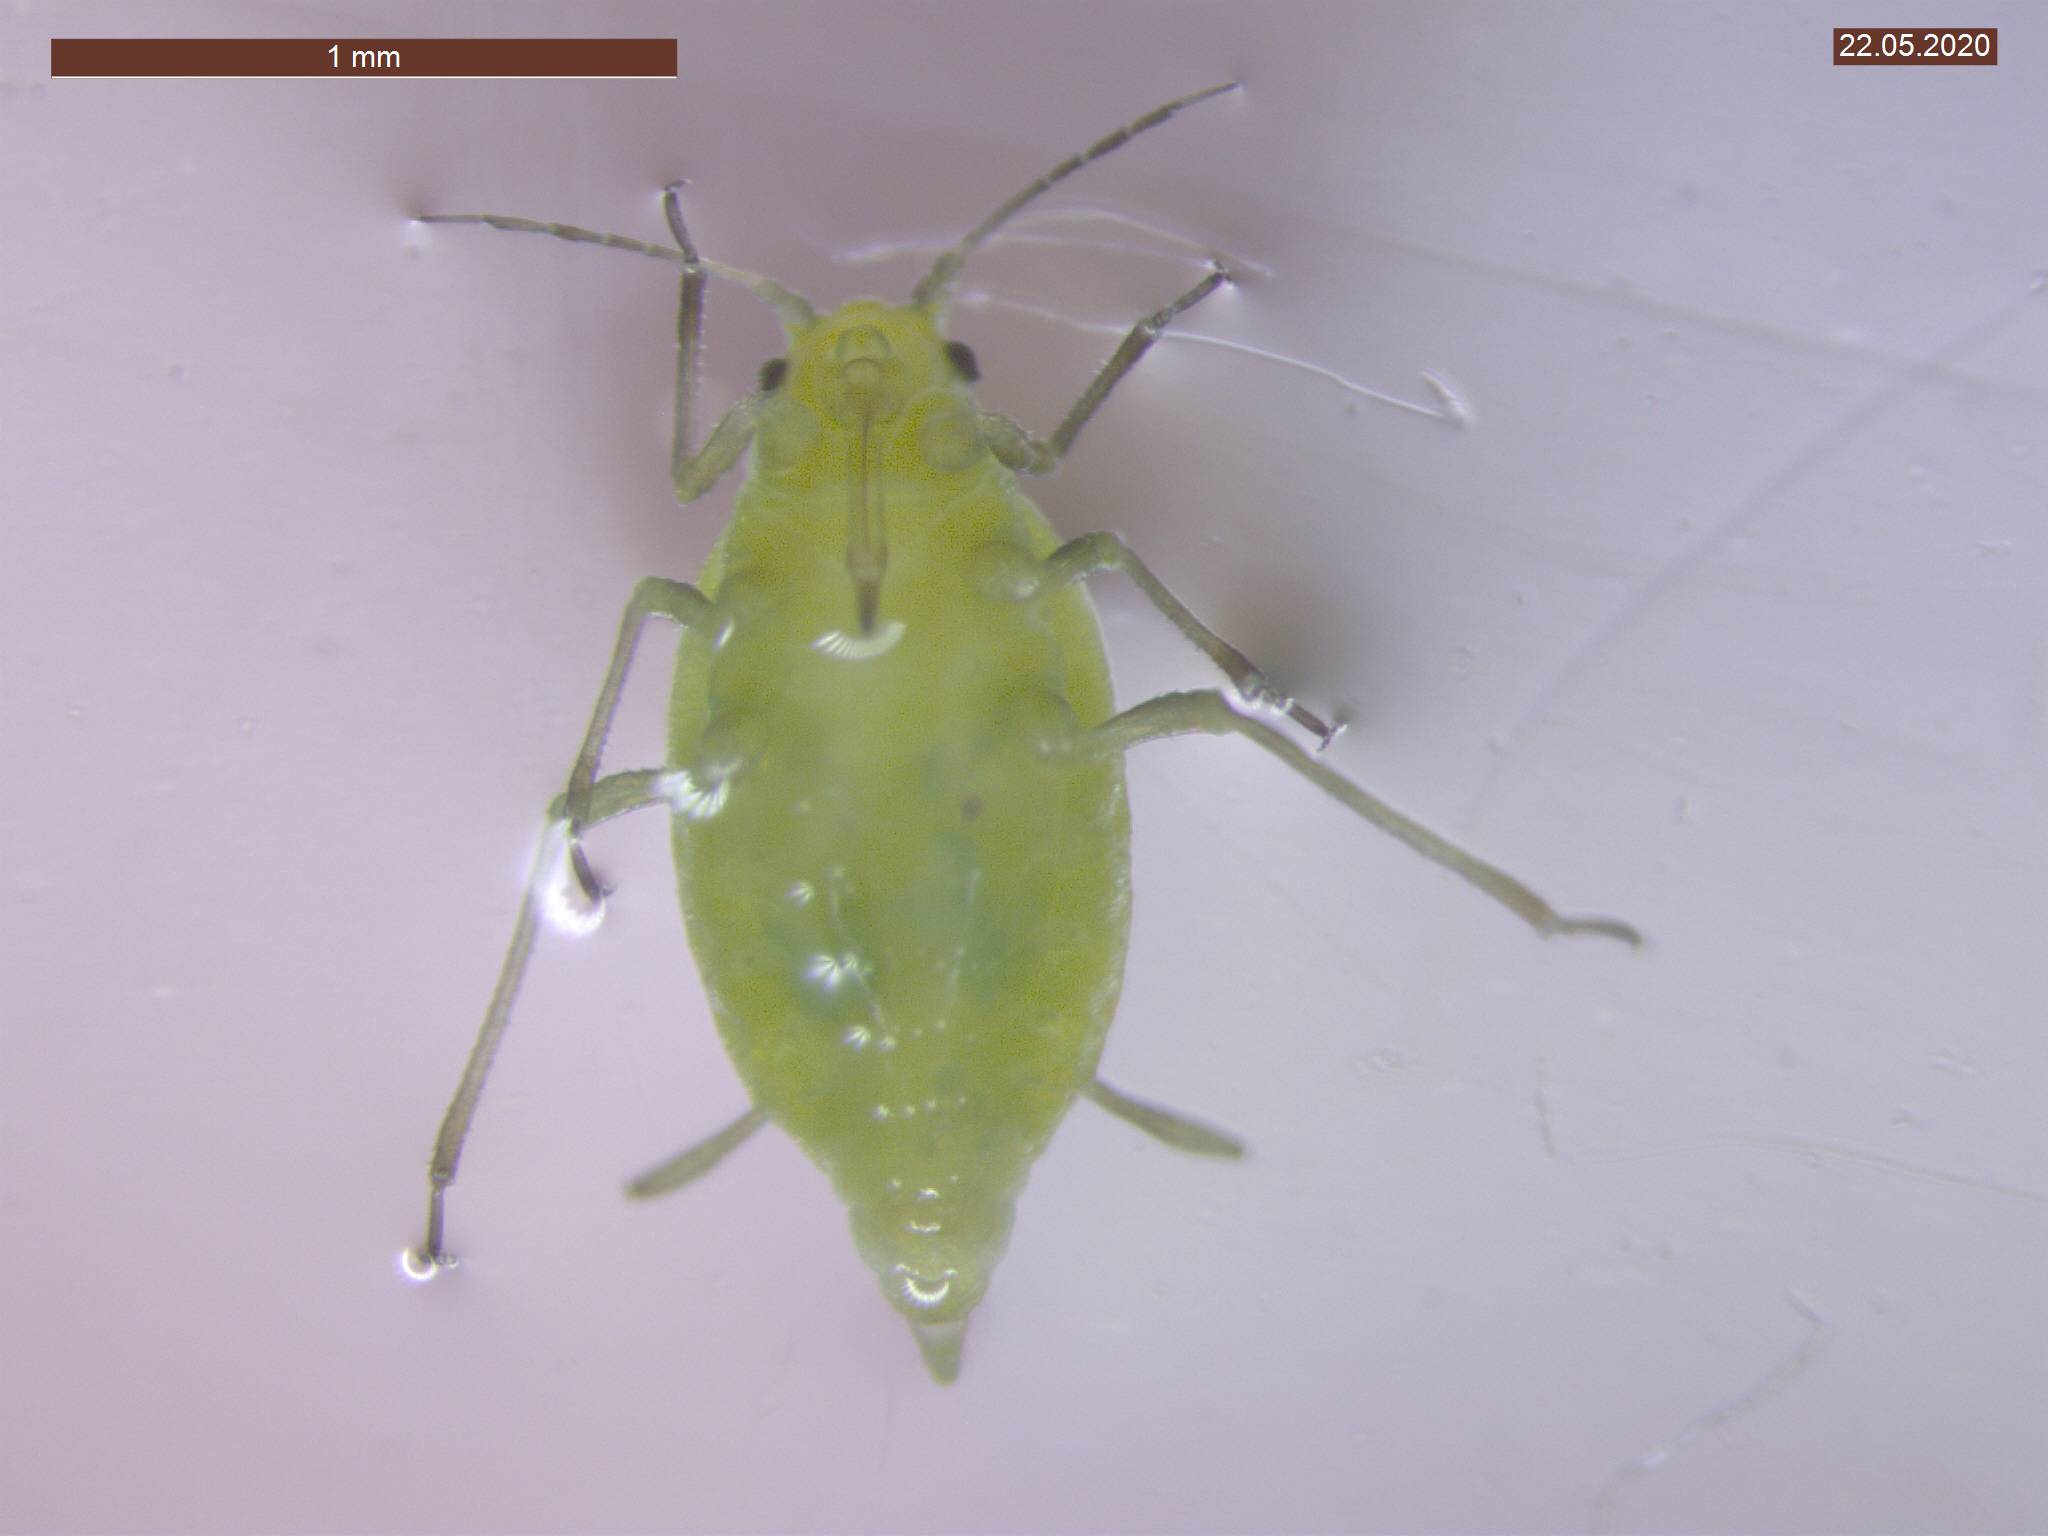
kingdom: Animalia
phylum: Arthropoda
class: Insecta
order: Hemiptera
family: Aphididae
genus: Cavariella
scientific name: Cavariella aegopodii
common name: Carrot-willow aphid
